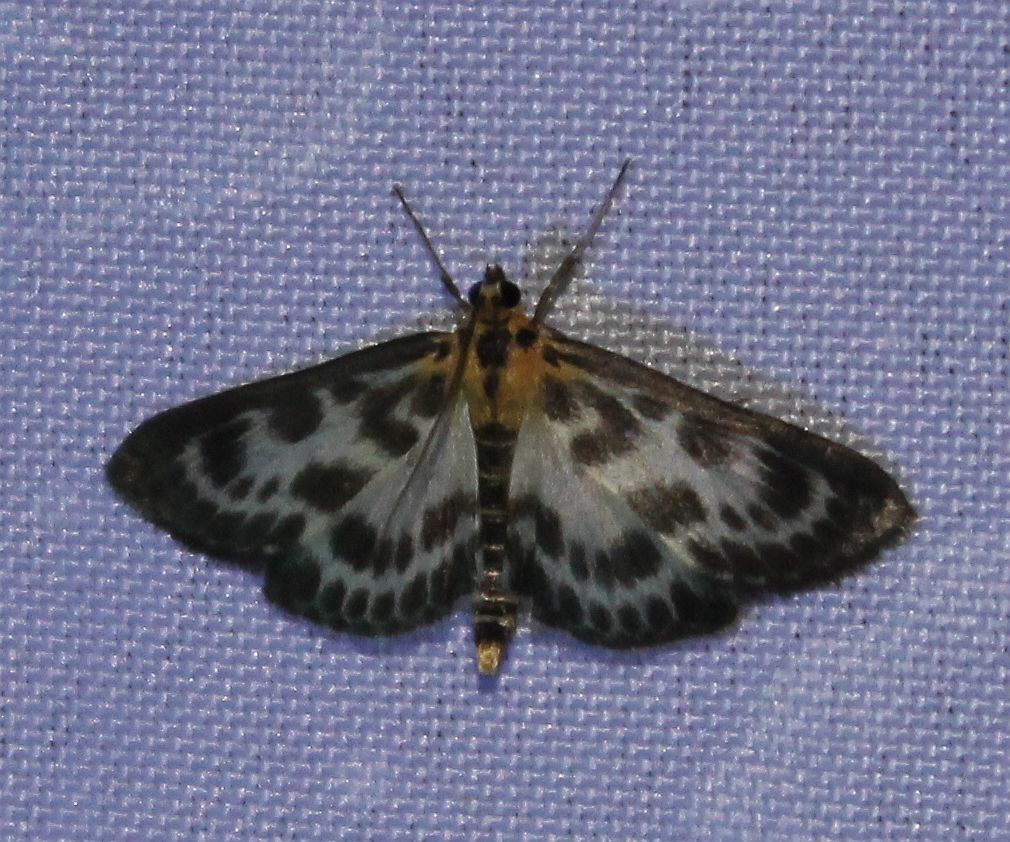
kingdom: Animalia
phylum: Arthropoda
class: Insecta
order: Lepidoptera
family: Crambidae
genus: Anania
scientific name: Anania hortulata
